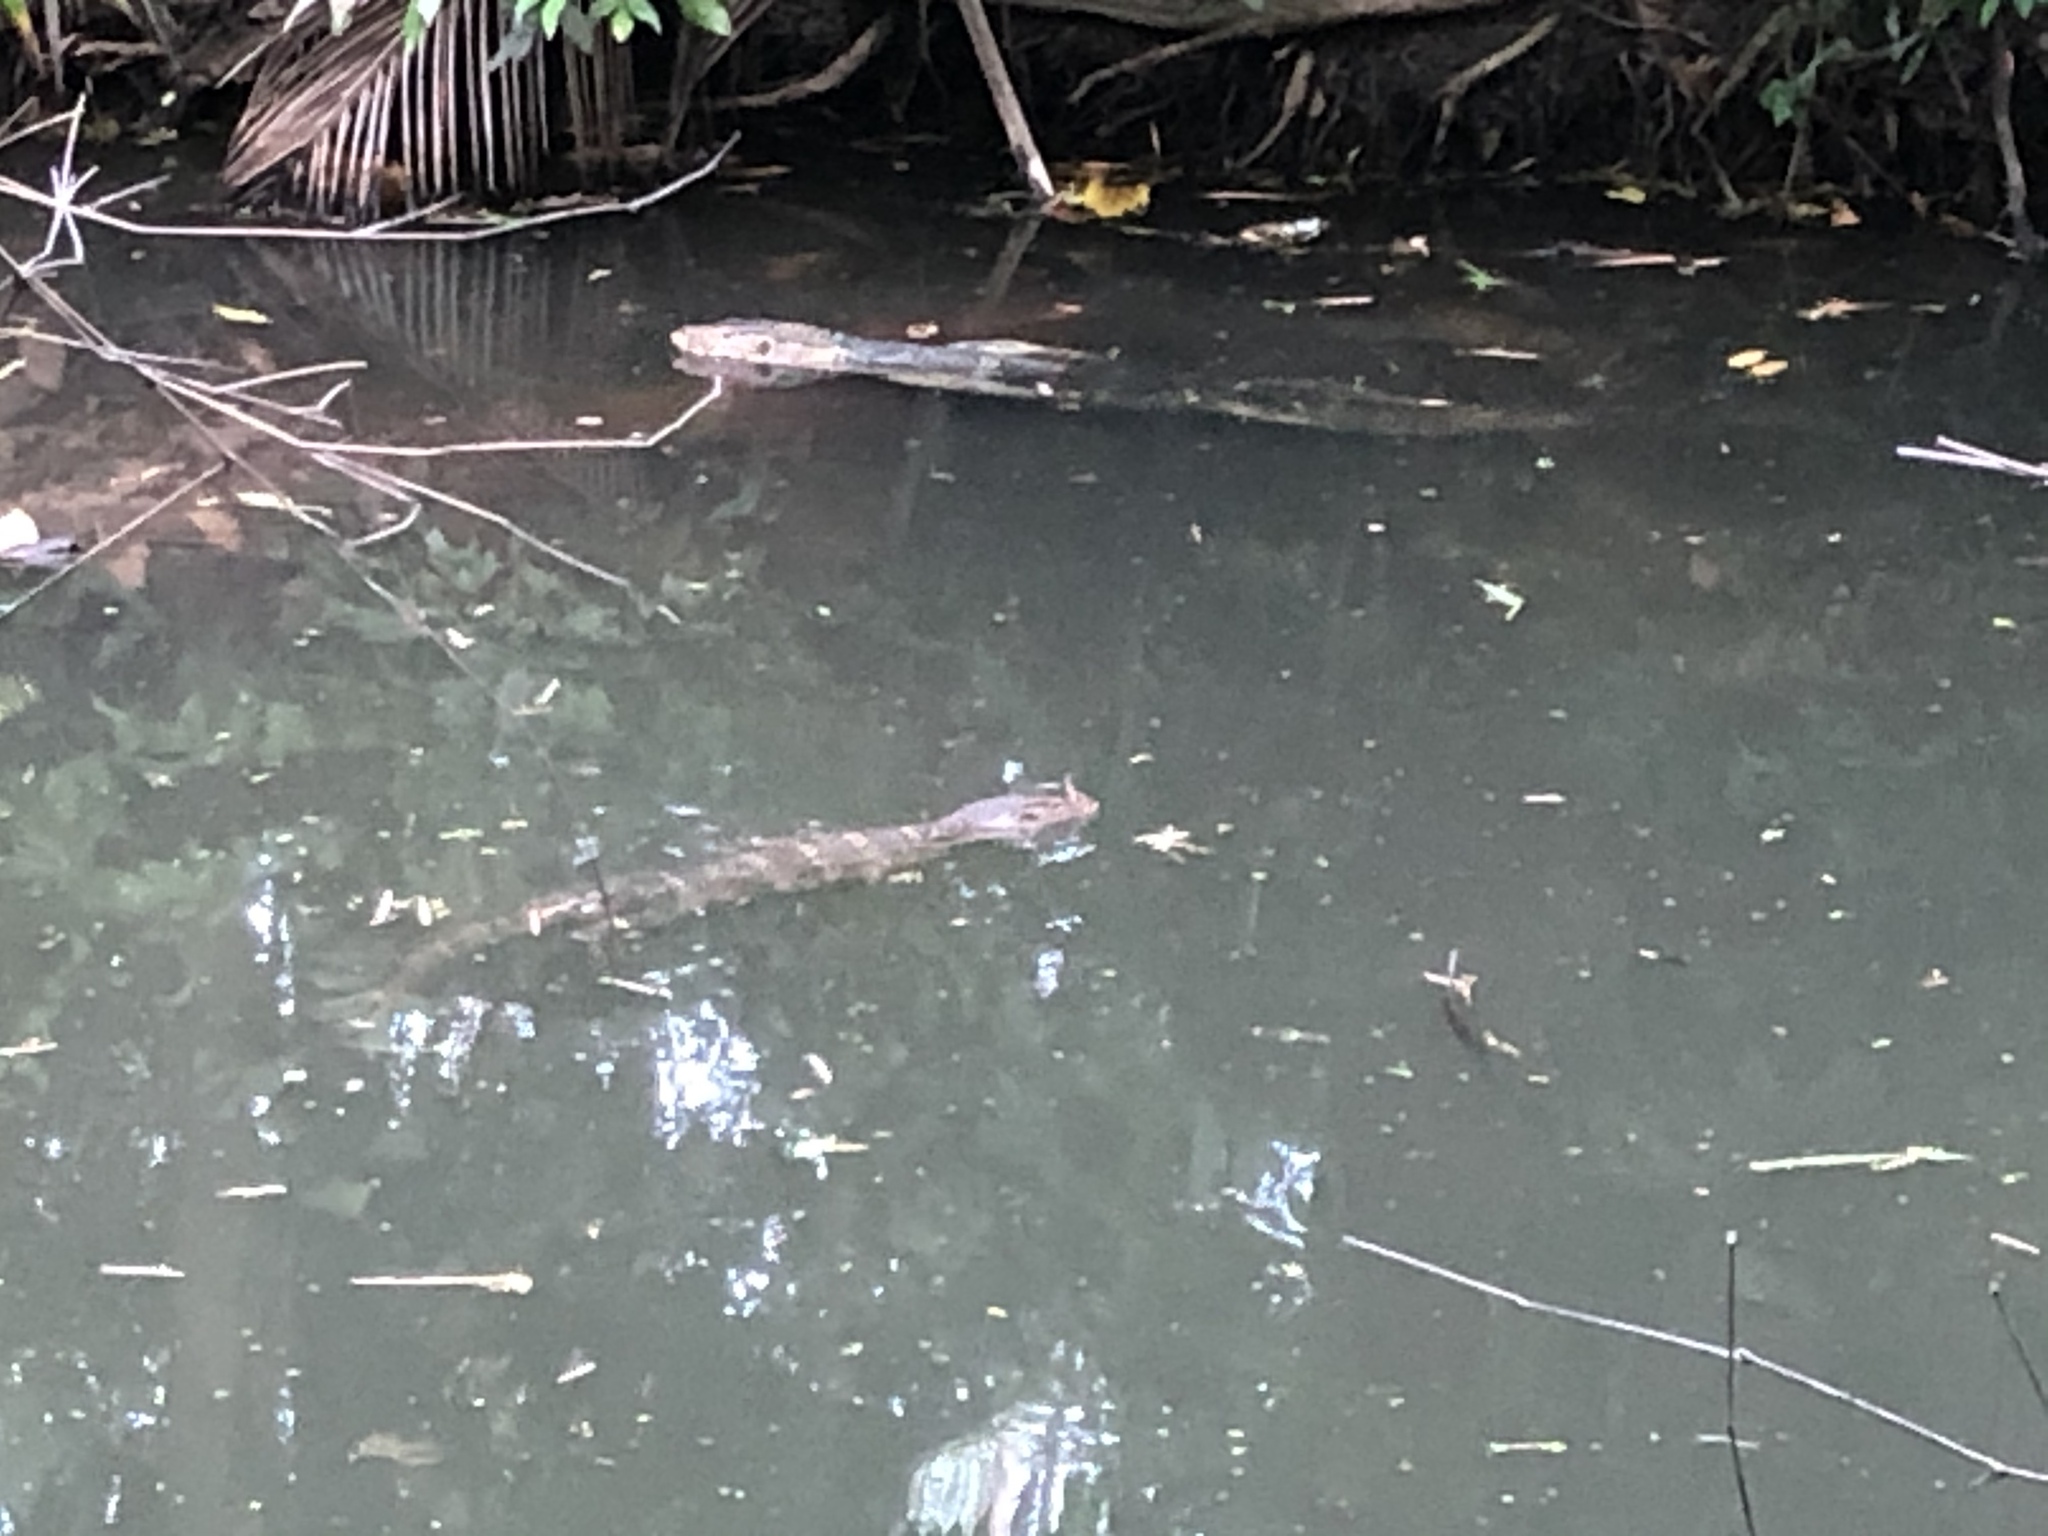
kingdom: Animalia
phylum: Chordata
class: Squamata
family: Varanidae
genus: Varanus
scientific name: Varanus salvator
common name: Common water monitor
